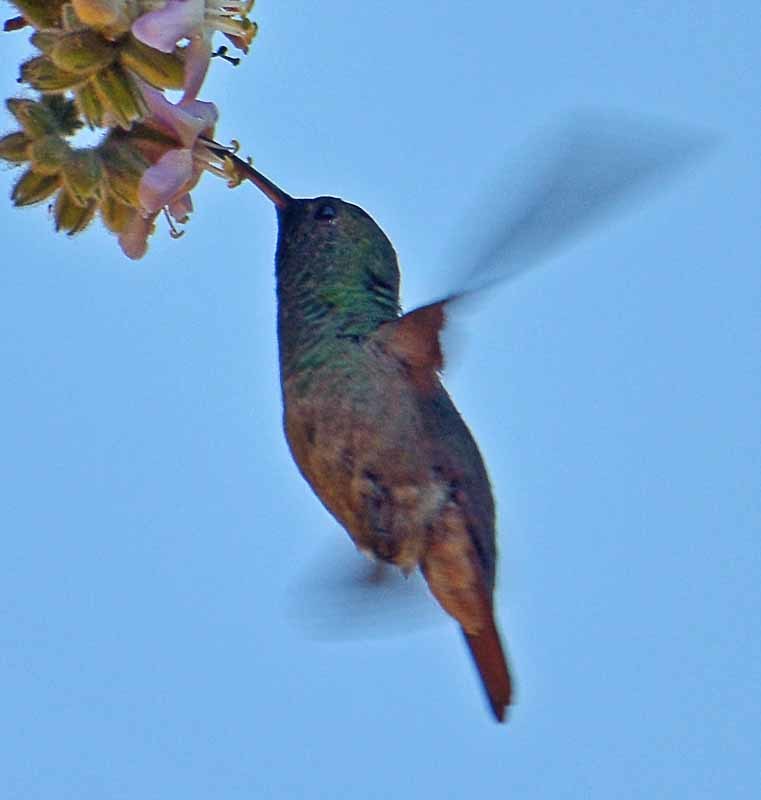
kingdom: Animalia
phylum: Chordata
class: Aves
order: Apodiformes
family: Trochilidae
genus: Saucerottia
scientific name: Saucerottia beryllina
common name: Berylline hummingbird
